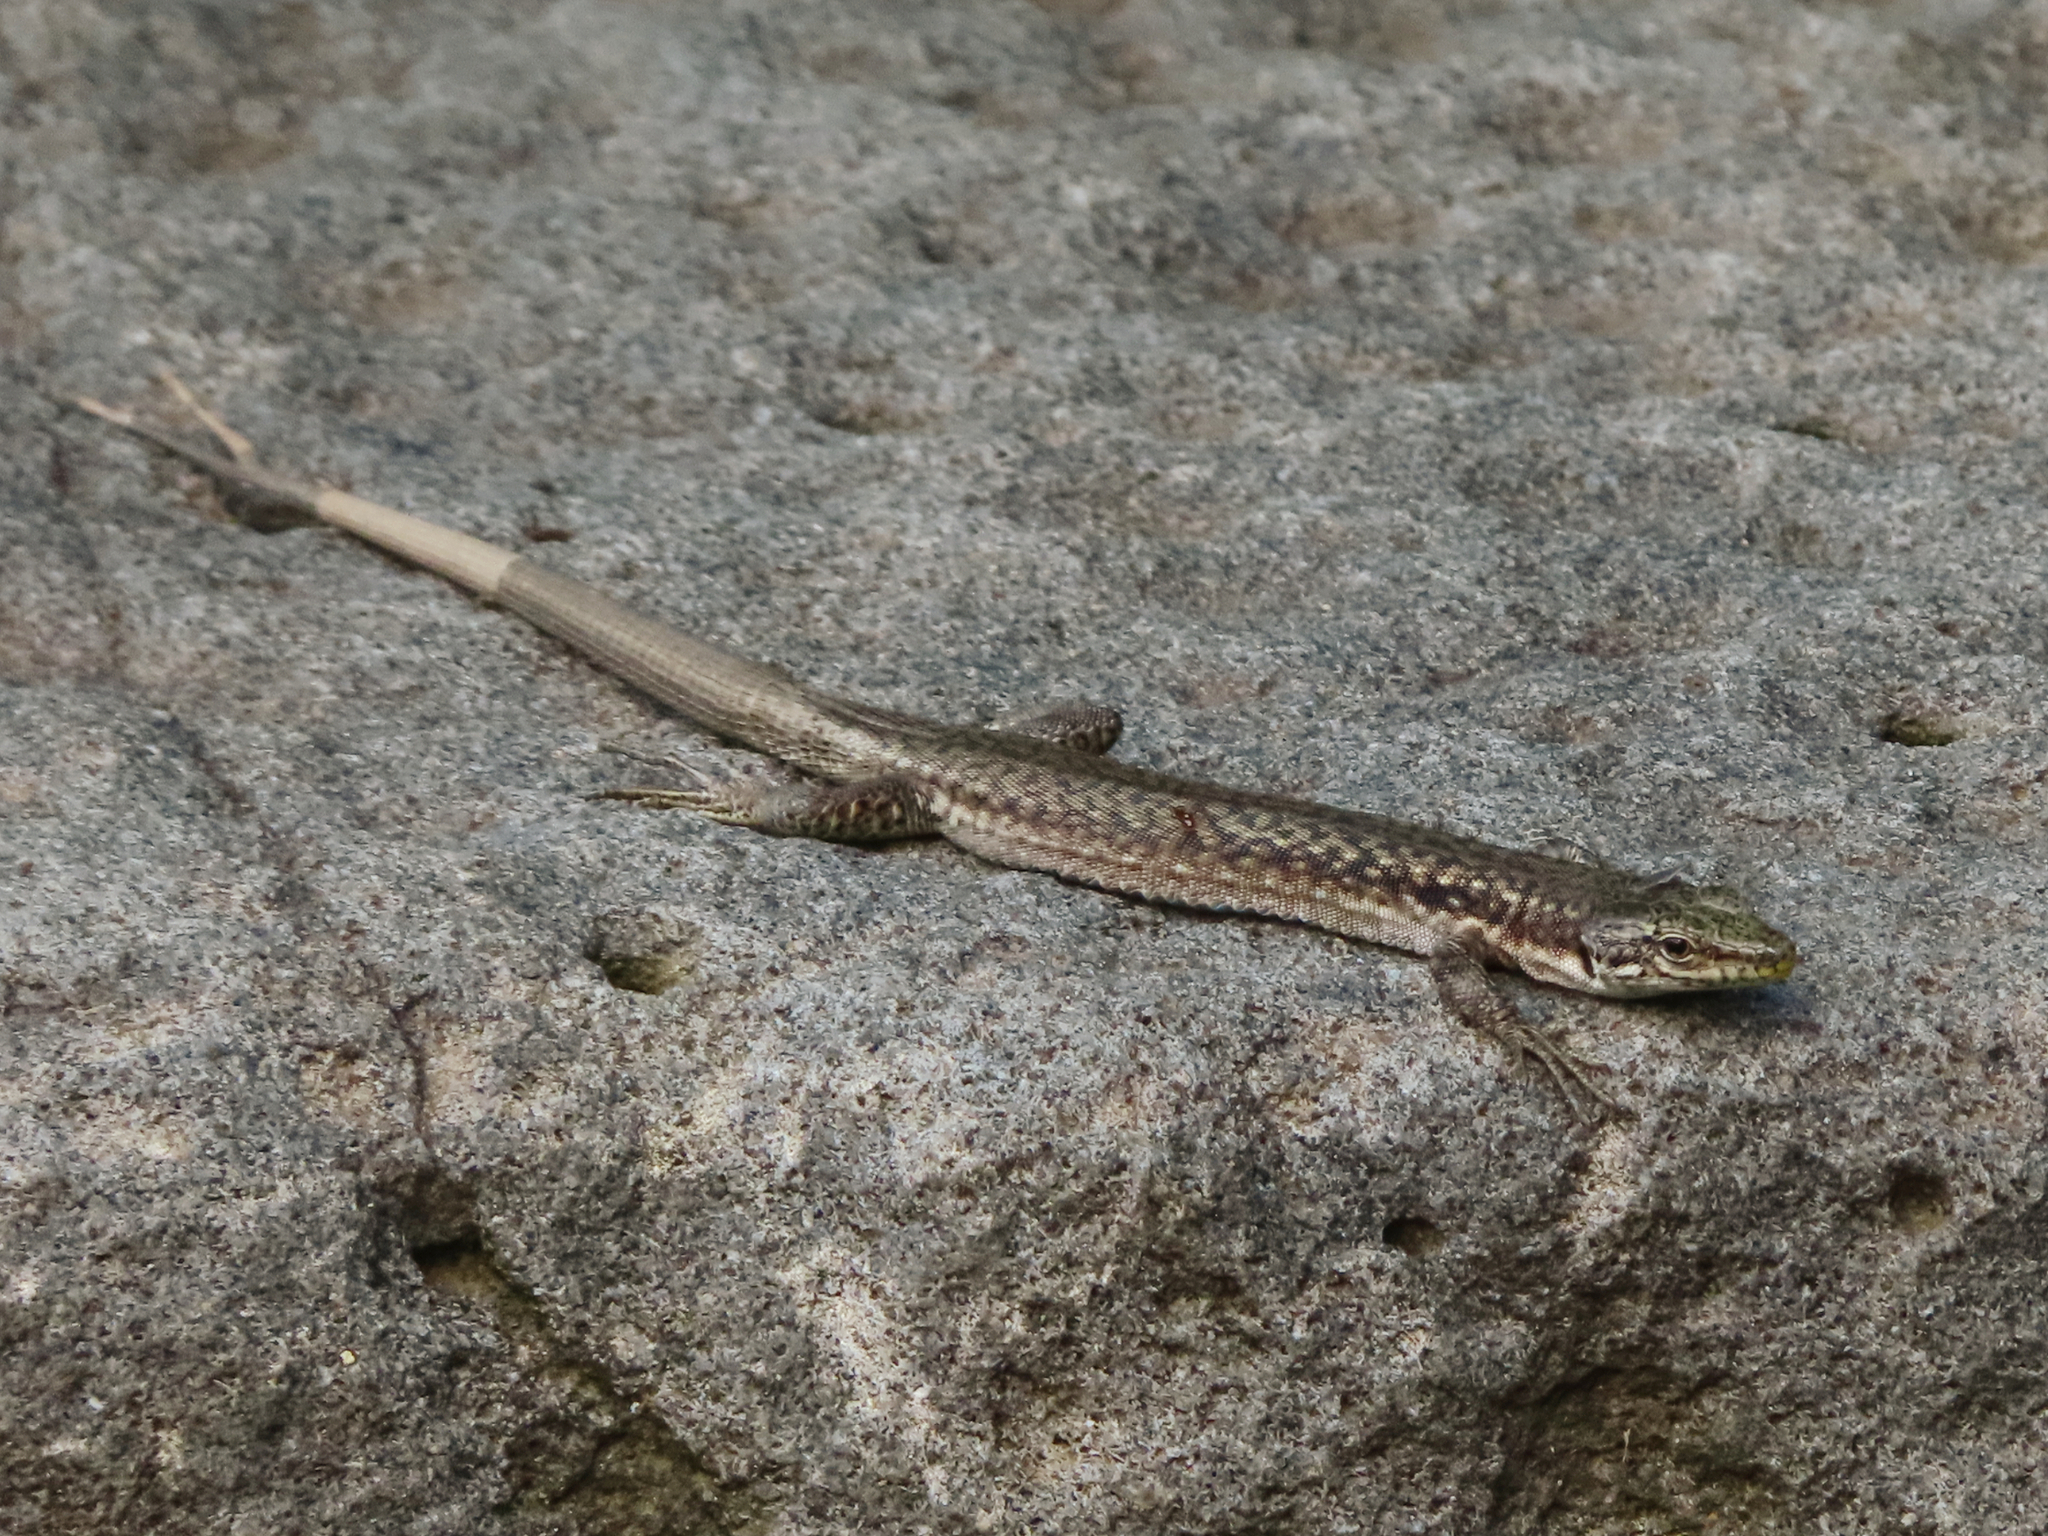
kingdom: Animalia
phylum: Chordata
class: Squamata
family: Lacertidae
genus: Darevskia
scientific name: Darevskia portschinskii
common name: River kura lizard
